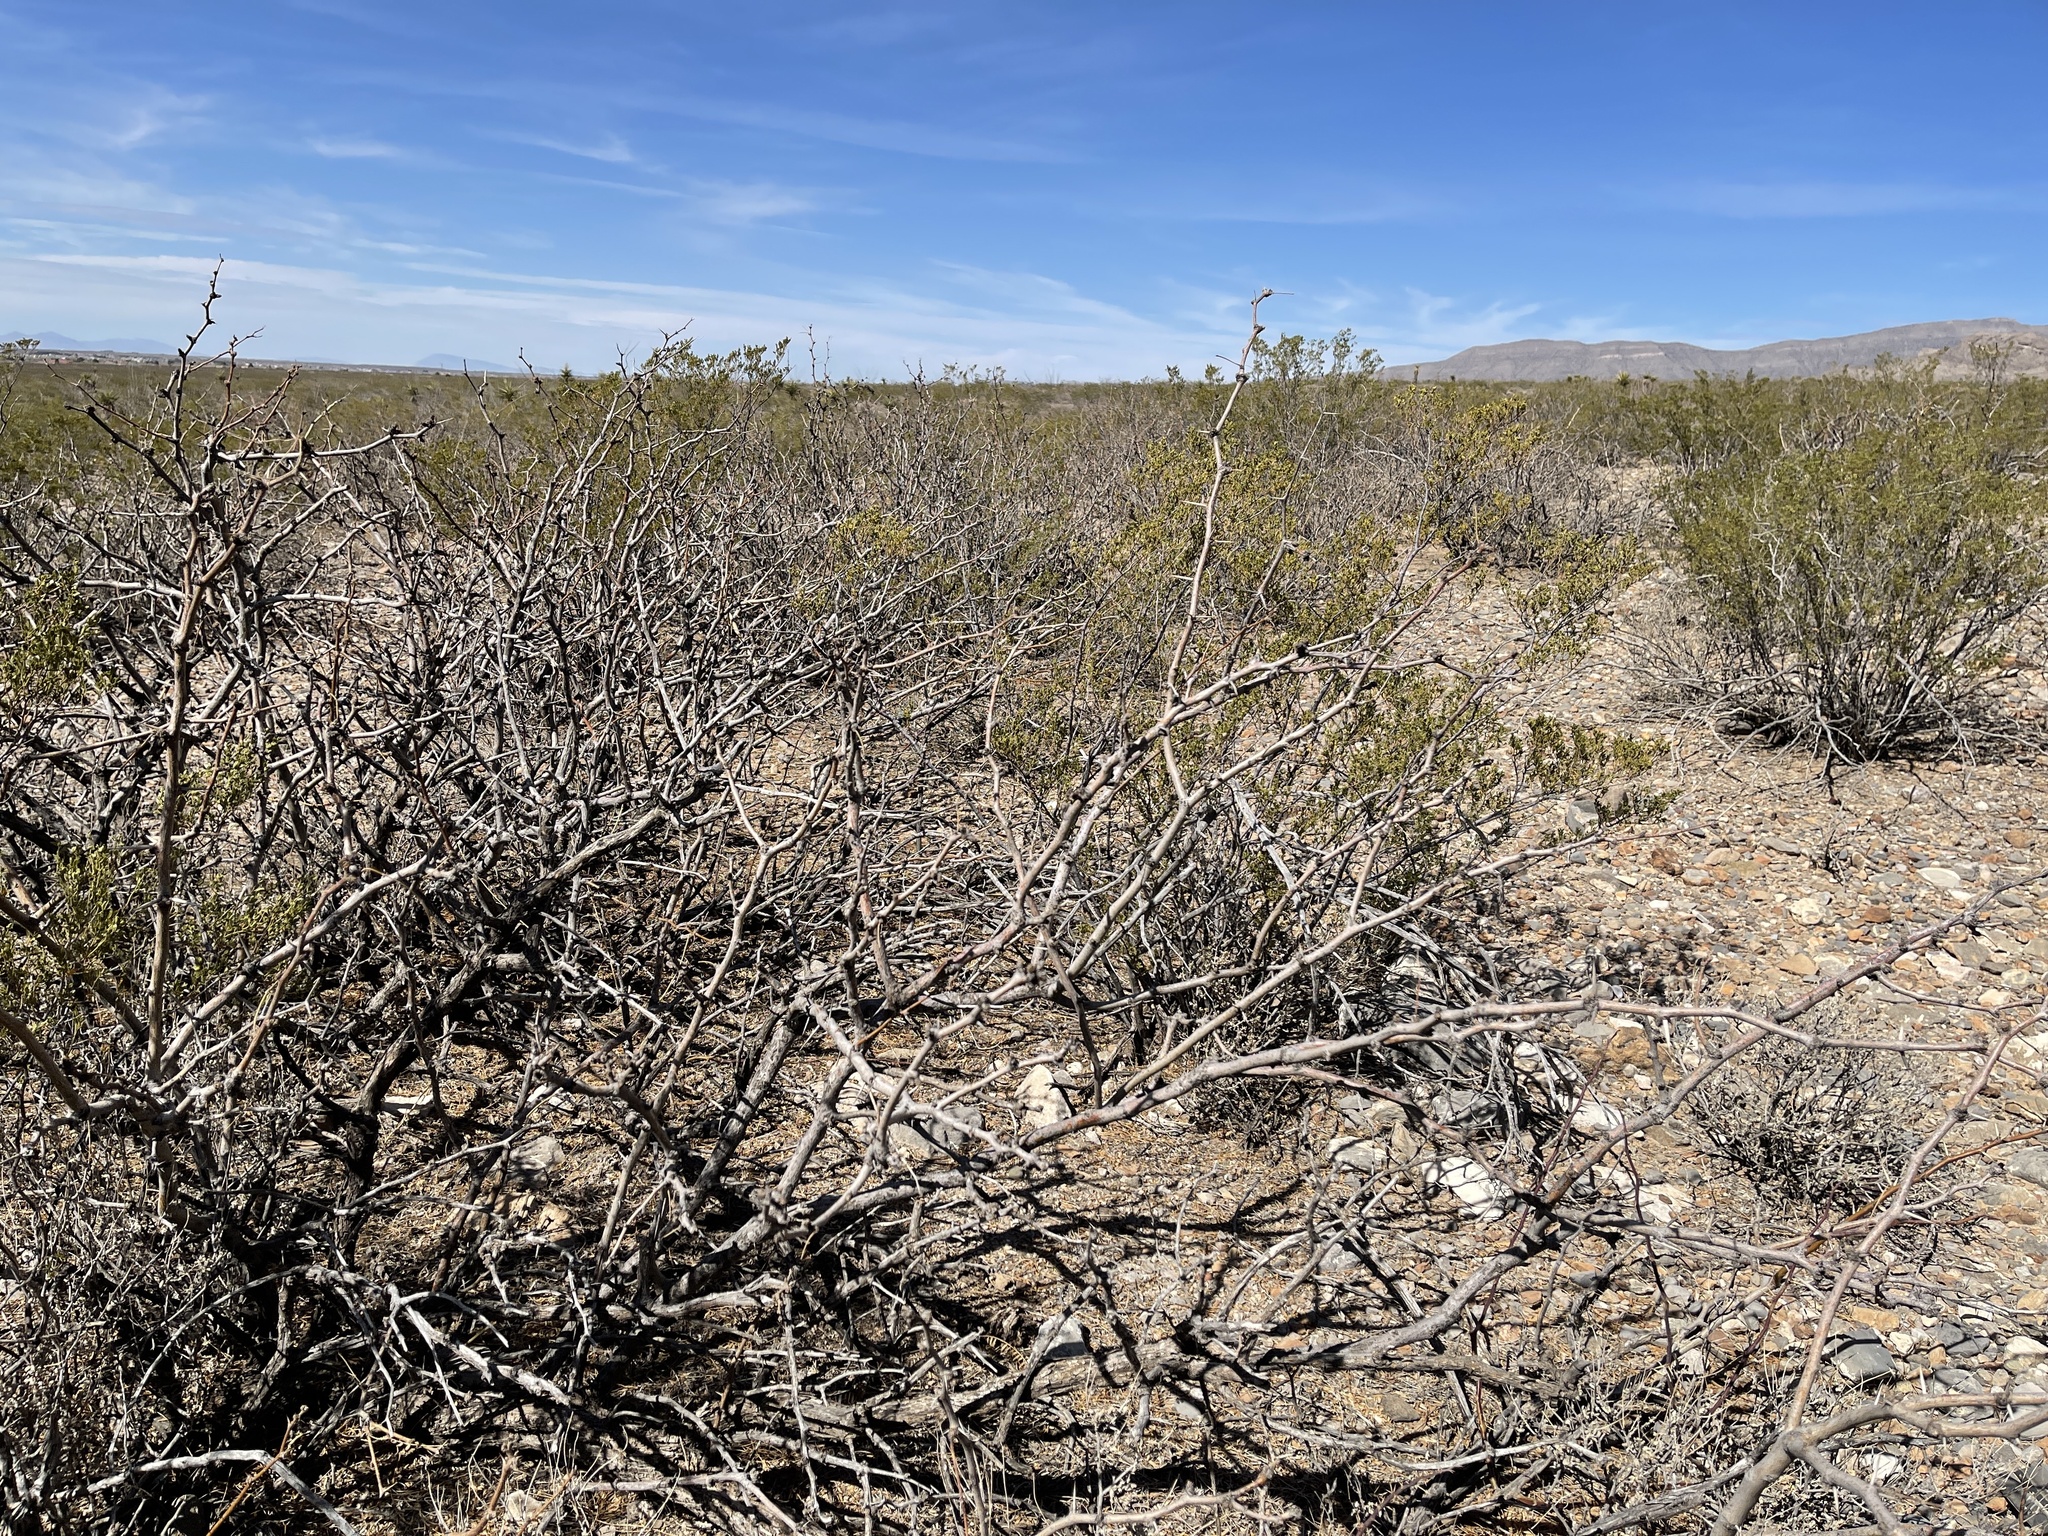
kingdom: Plantae
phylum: Tracheophyta
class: Magnoliopsida
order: Fabales
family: Fabaceae
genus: Prosopis
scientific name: Prosopis glandulosa
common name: Honey mesquite
